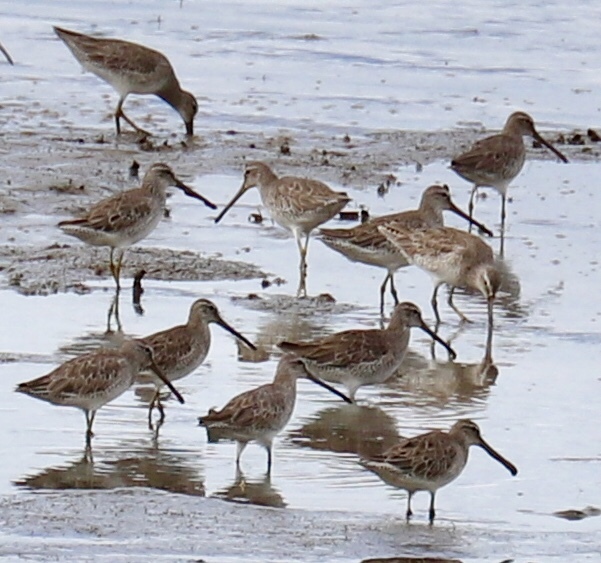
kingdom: Animalia
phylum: Chordata
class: Aves
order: Charadriiformes
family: Scolopacidae
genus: Limnodromus
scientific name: Limnodromus griseus
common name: Short-billed dowitcher
